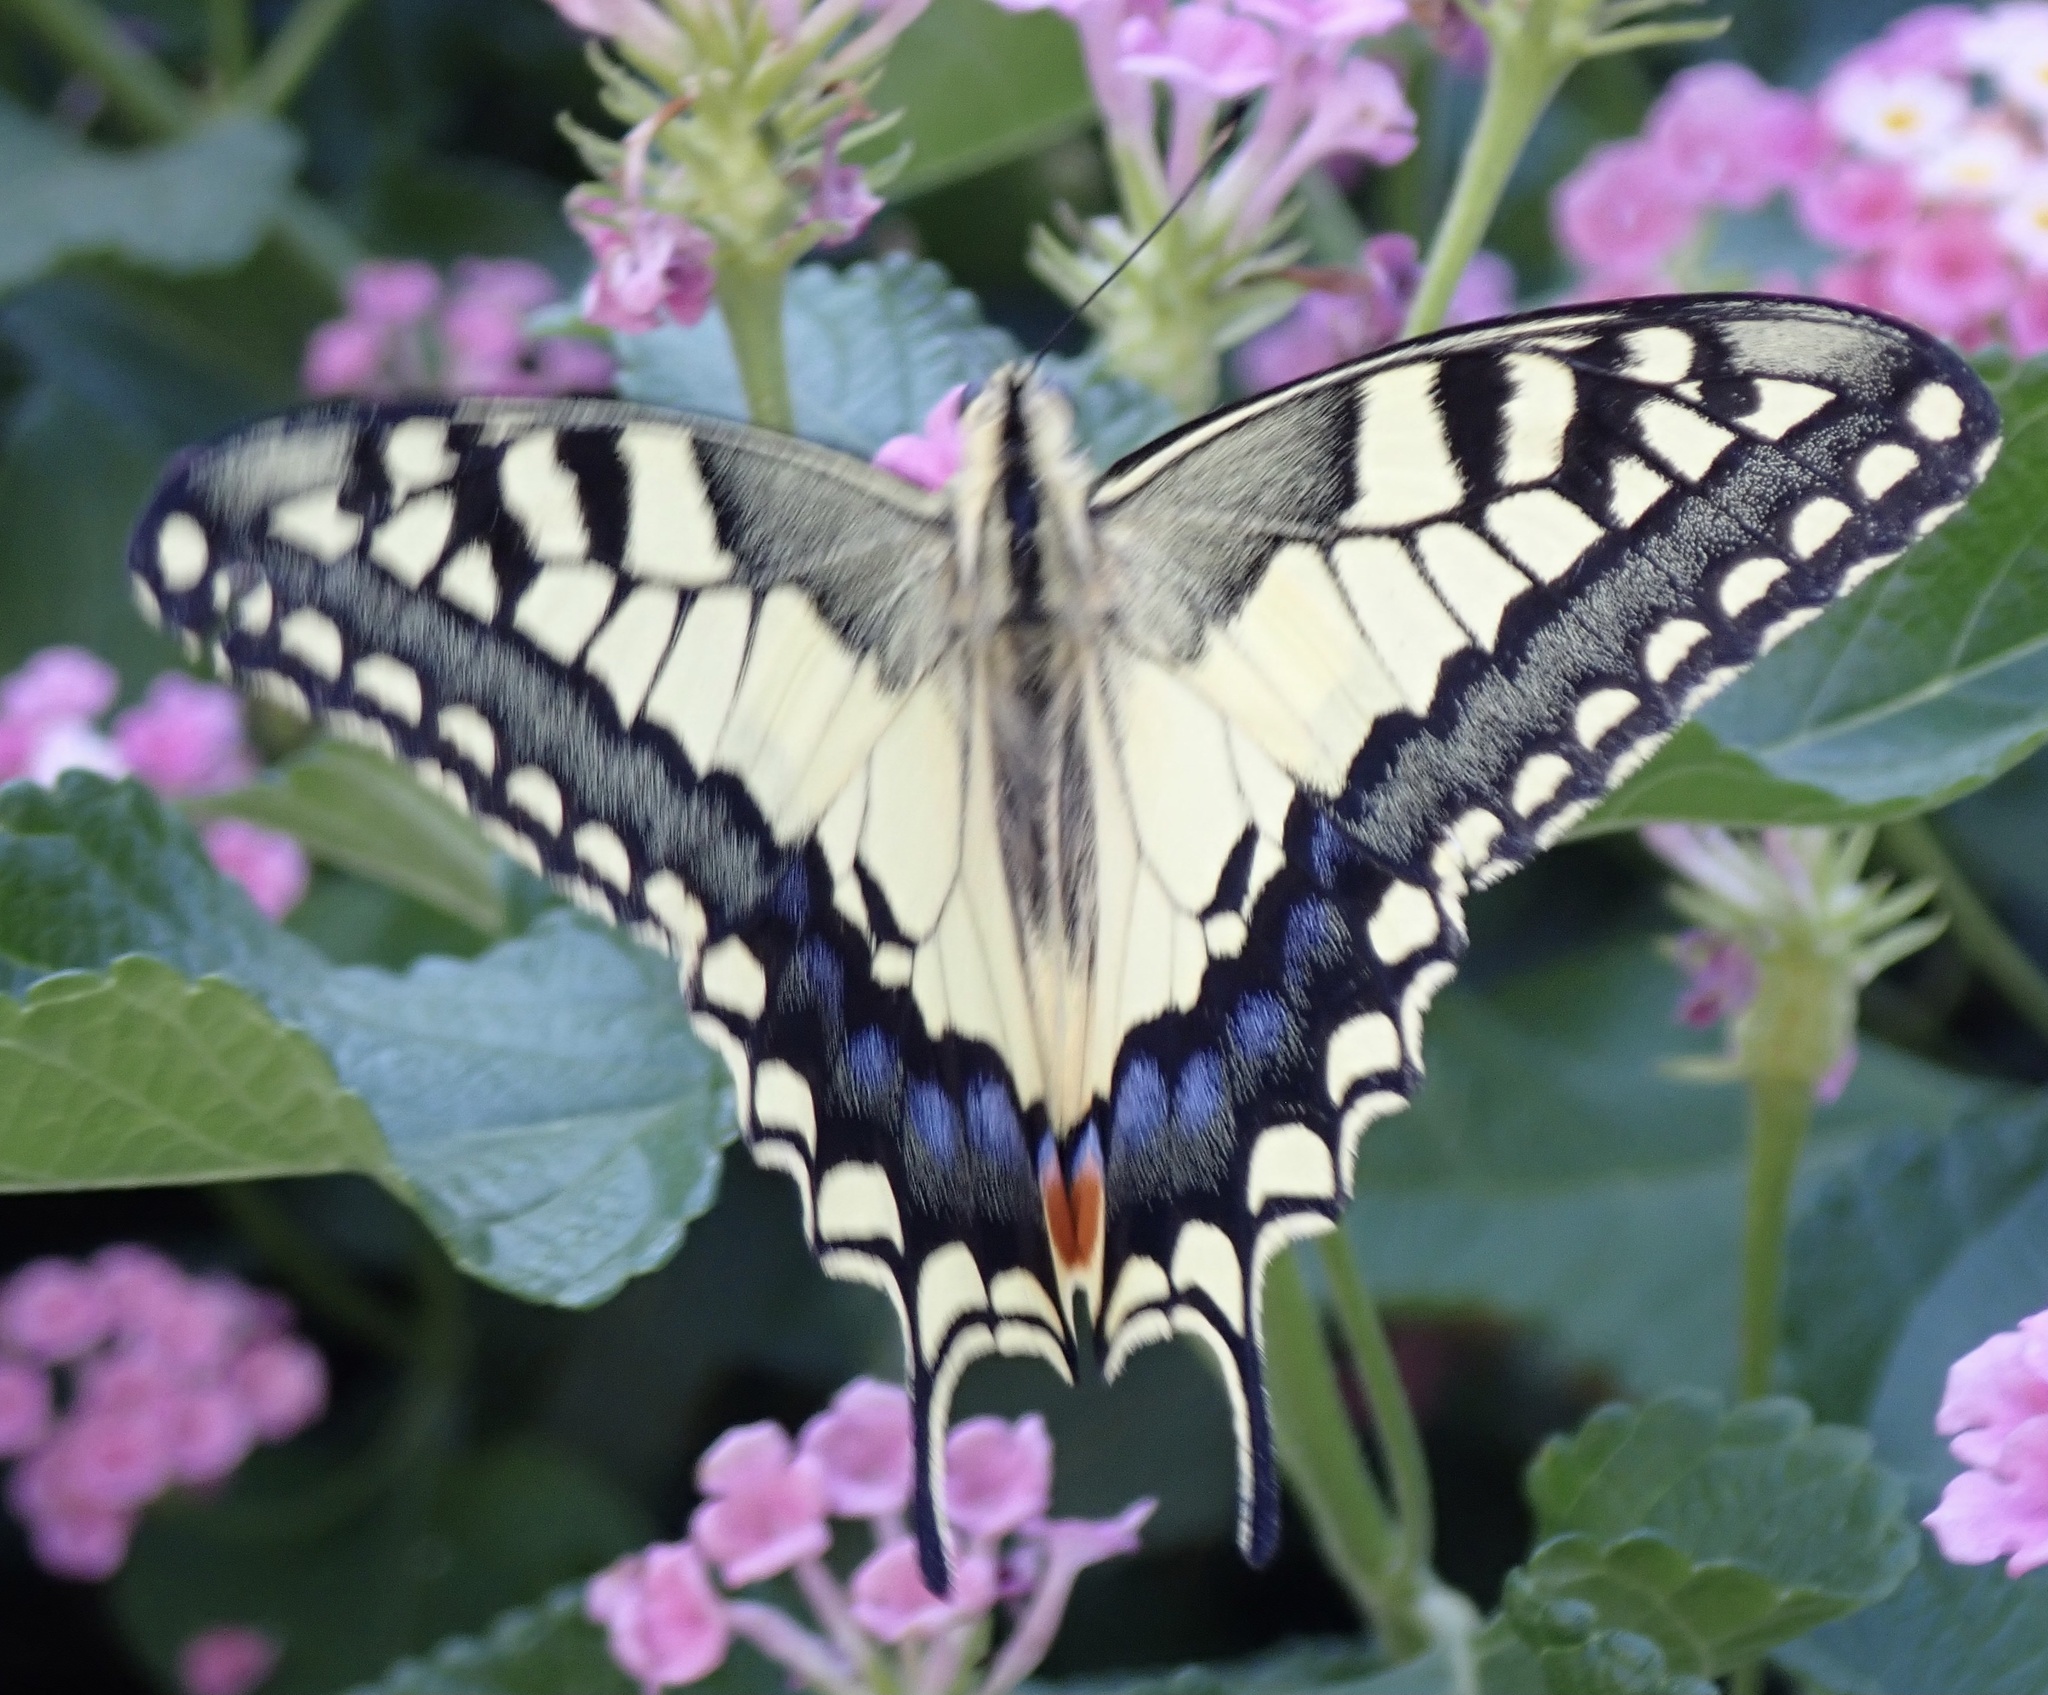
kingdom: Animalia
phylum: Arthropoda
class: Insecta
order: Lepidoptera
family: Papilionidae
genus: Papilio
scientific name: Papilio machaon
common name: Swallowtail
